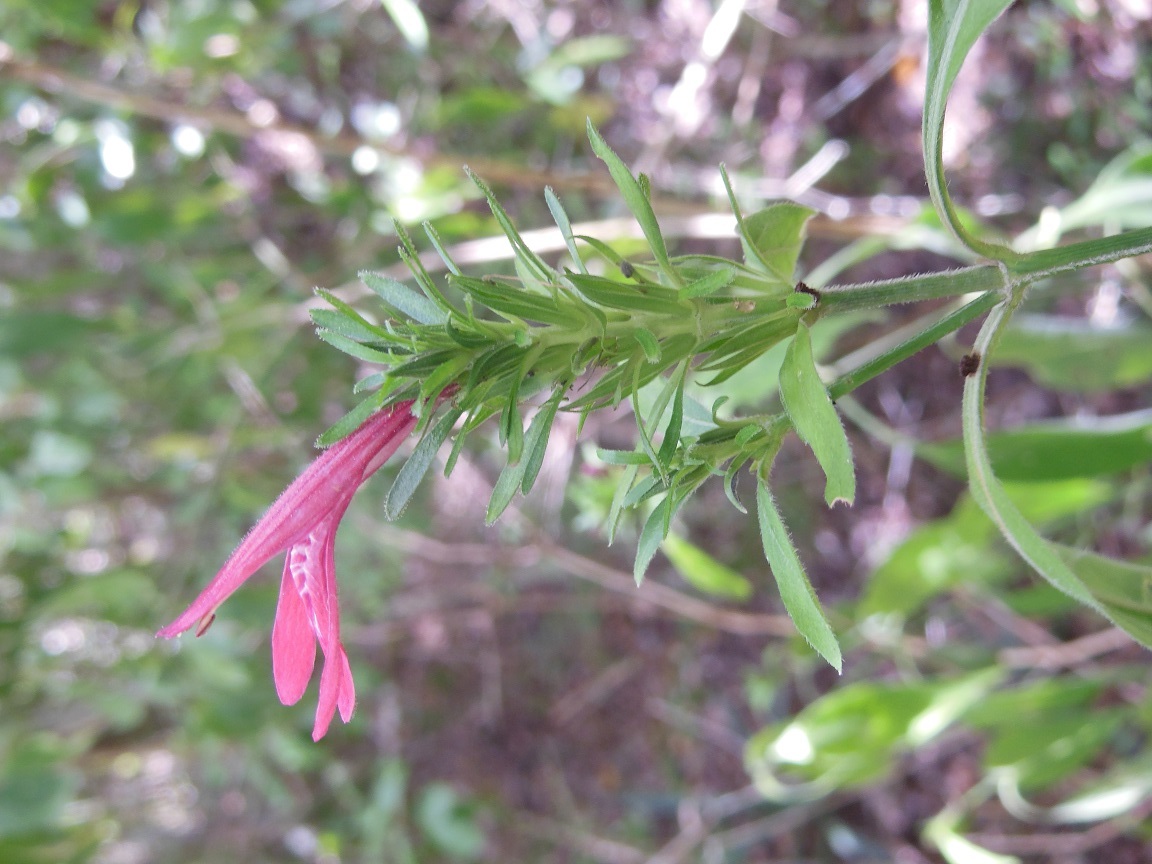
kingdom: Plantae
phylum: Tracheophyta
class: Magnoliopsida
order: Lamiales
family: Acanthaceae
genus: Justicia
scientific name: Justicia carthaginensis
